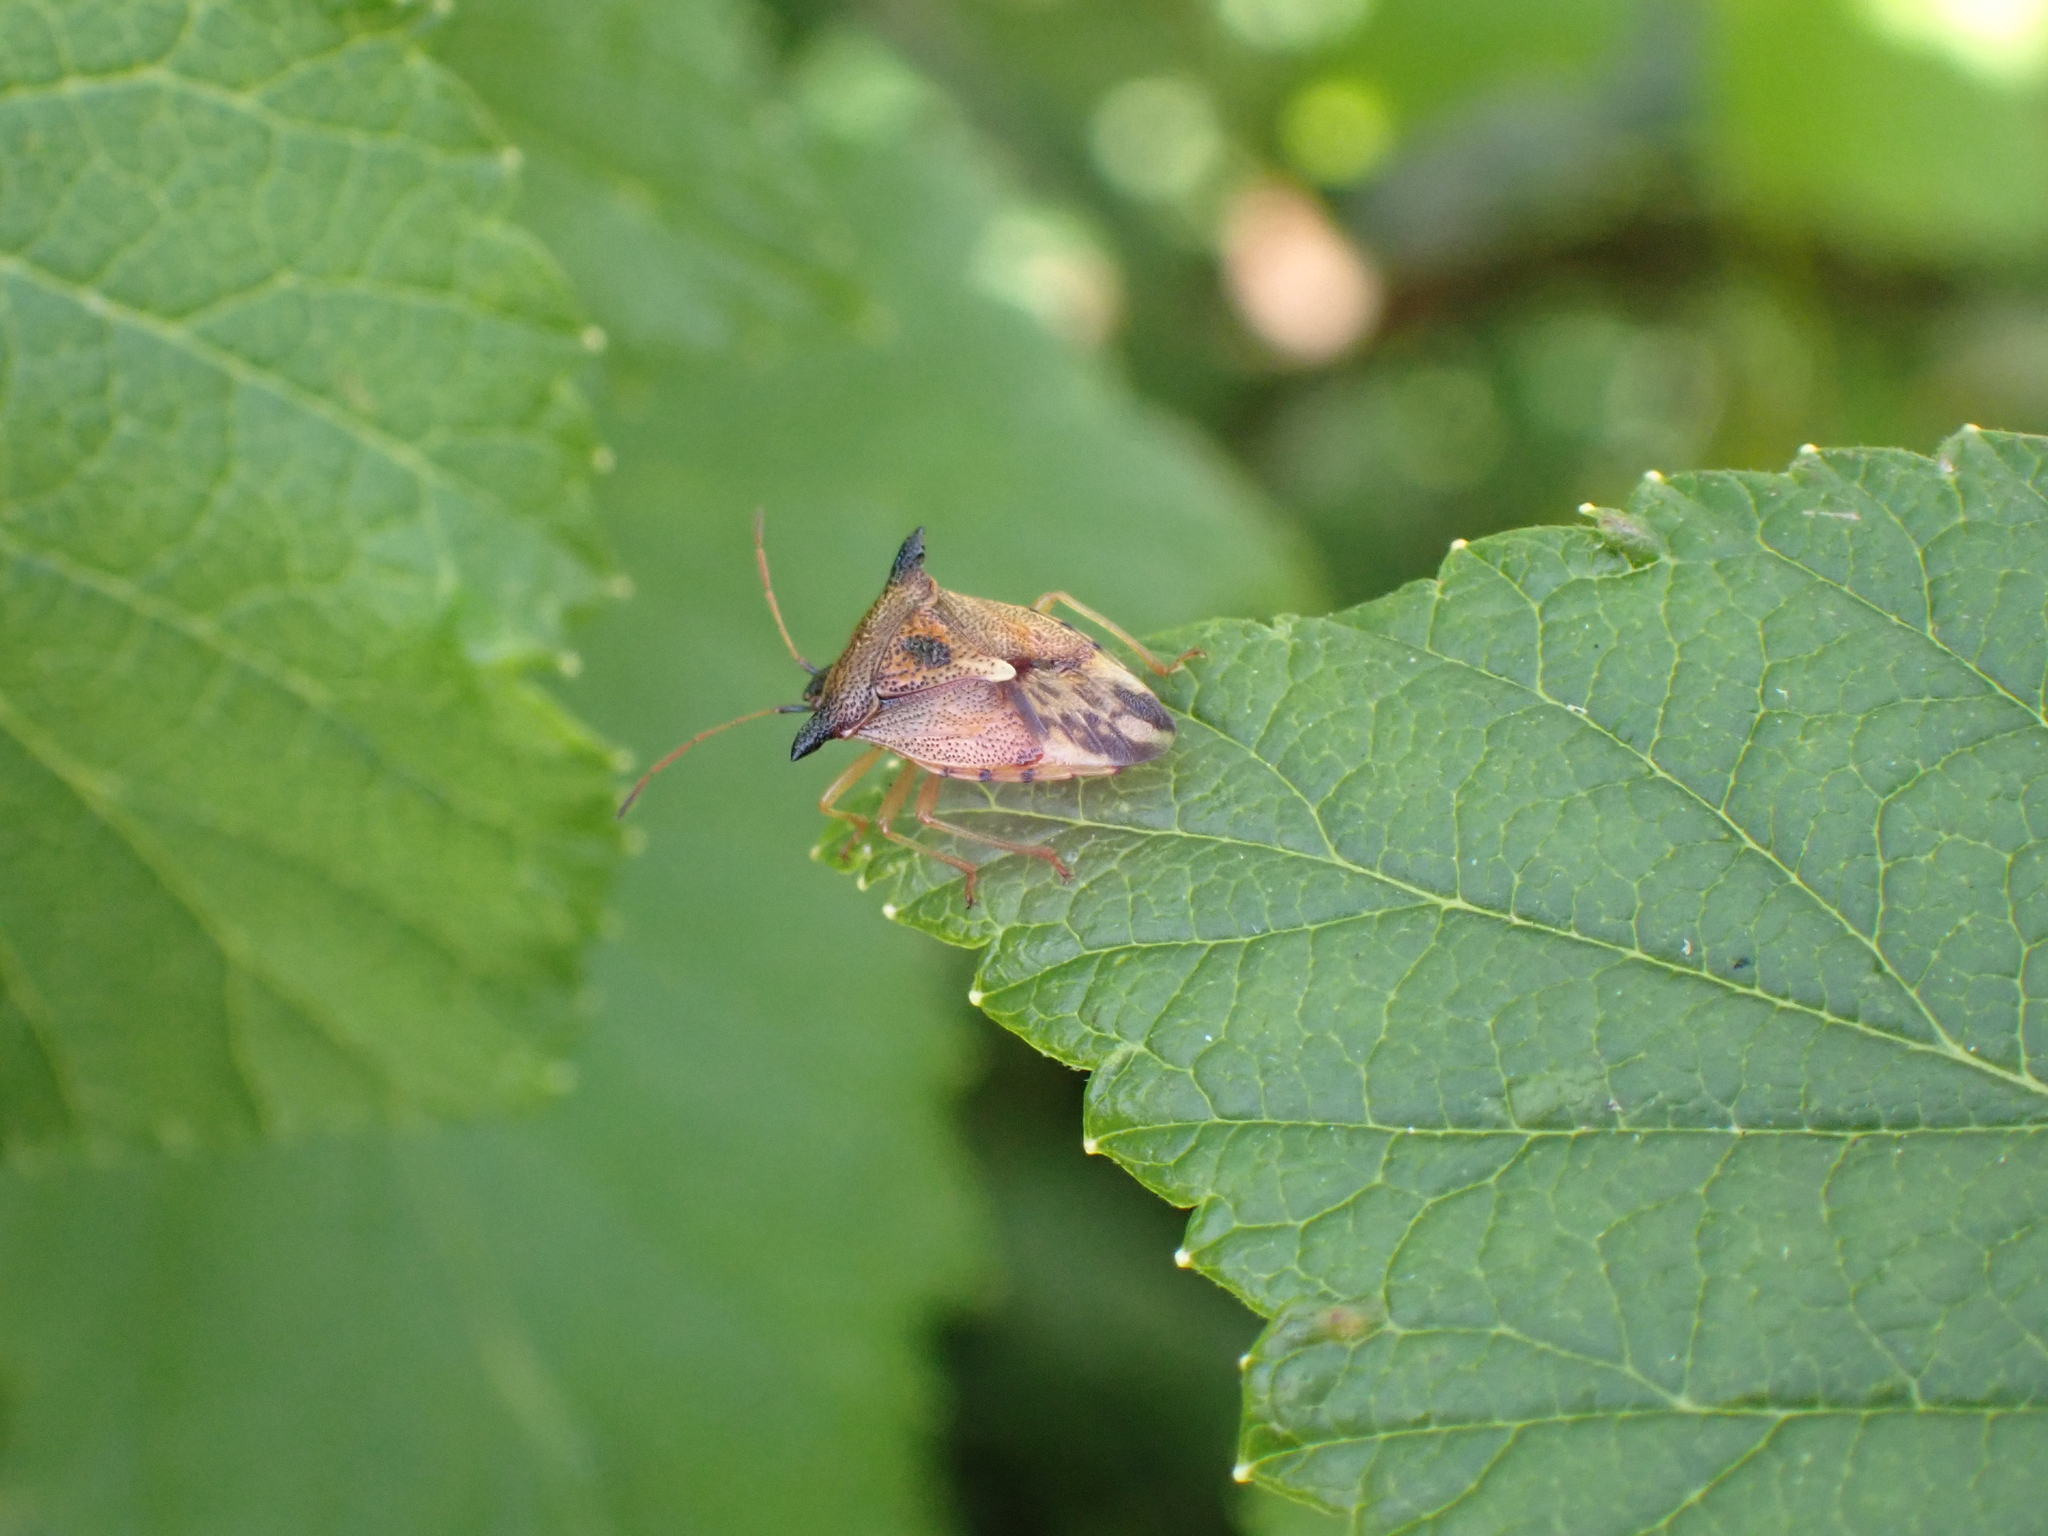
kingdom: Animalia
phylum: Arthropoda
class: Insecta
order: Hemiptera
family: Acanthosomatidae
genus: Elasmucha
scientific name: Elasmucha ferrugata
